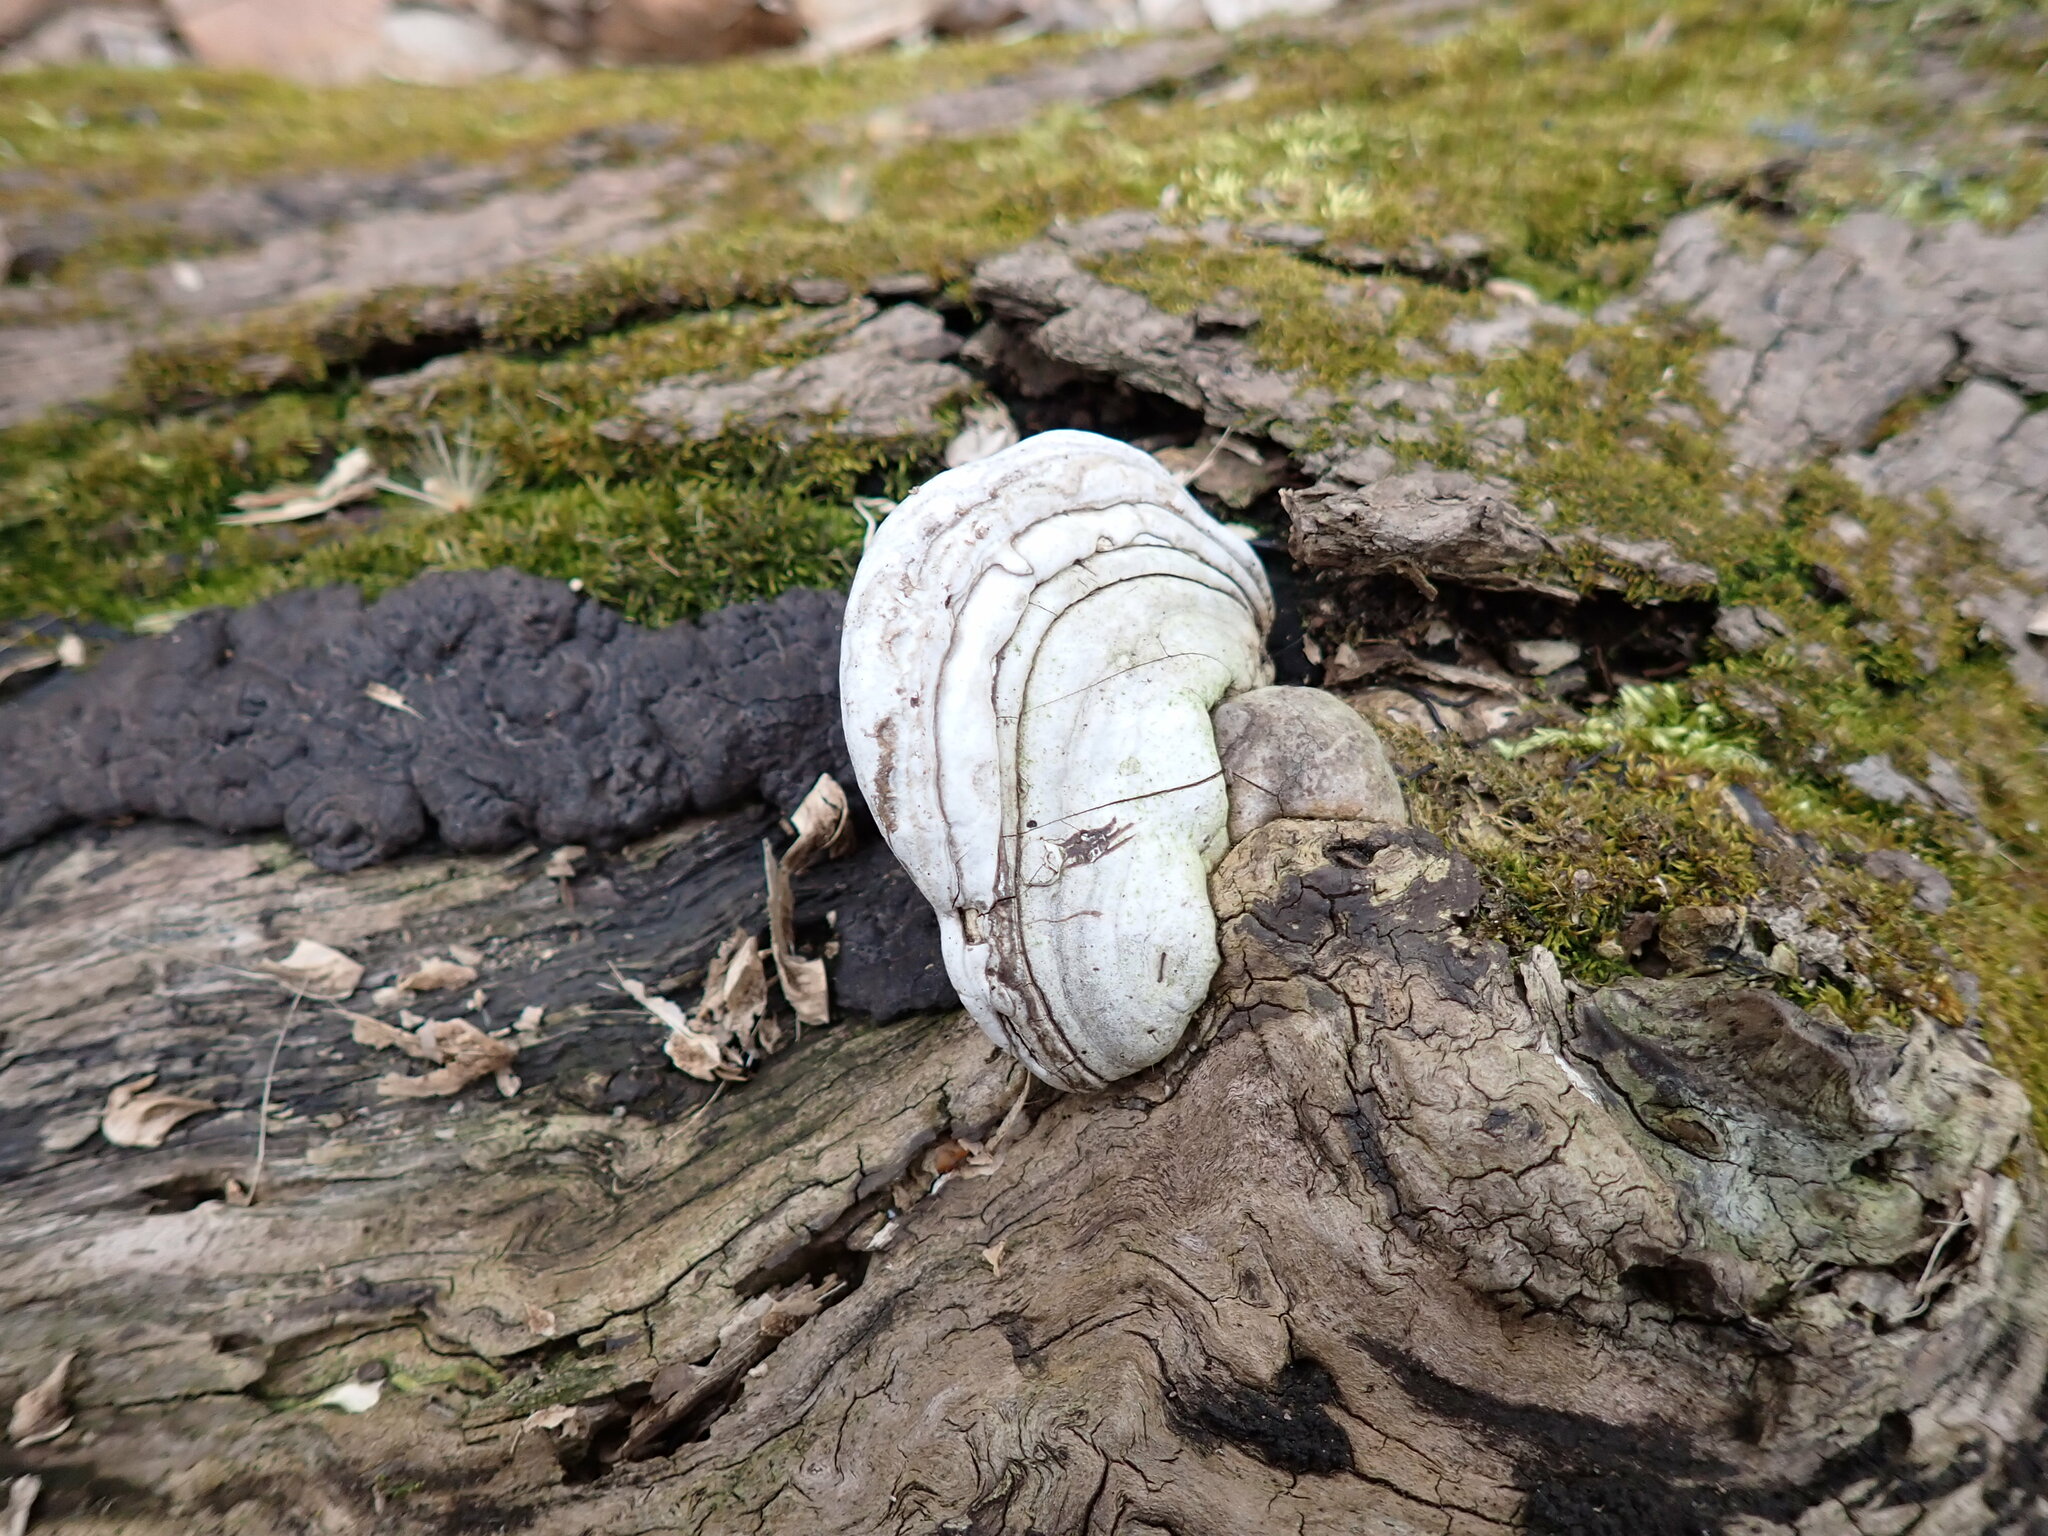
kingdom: Fungi
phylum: Basidiomycota
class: Agaricomycetes
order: Polyporales
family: Polyporaceae
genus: Fomes
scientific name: Fomes fomentarius
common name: Hoof fungus
